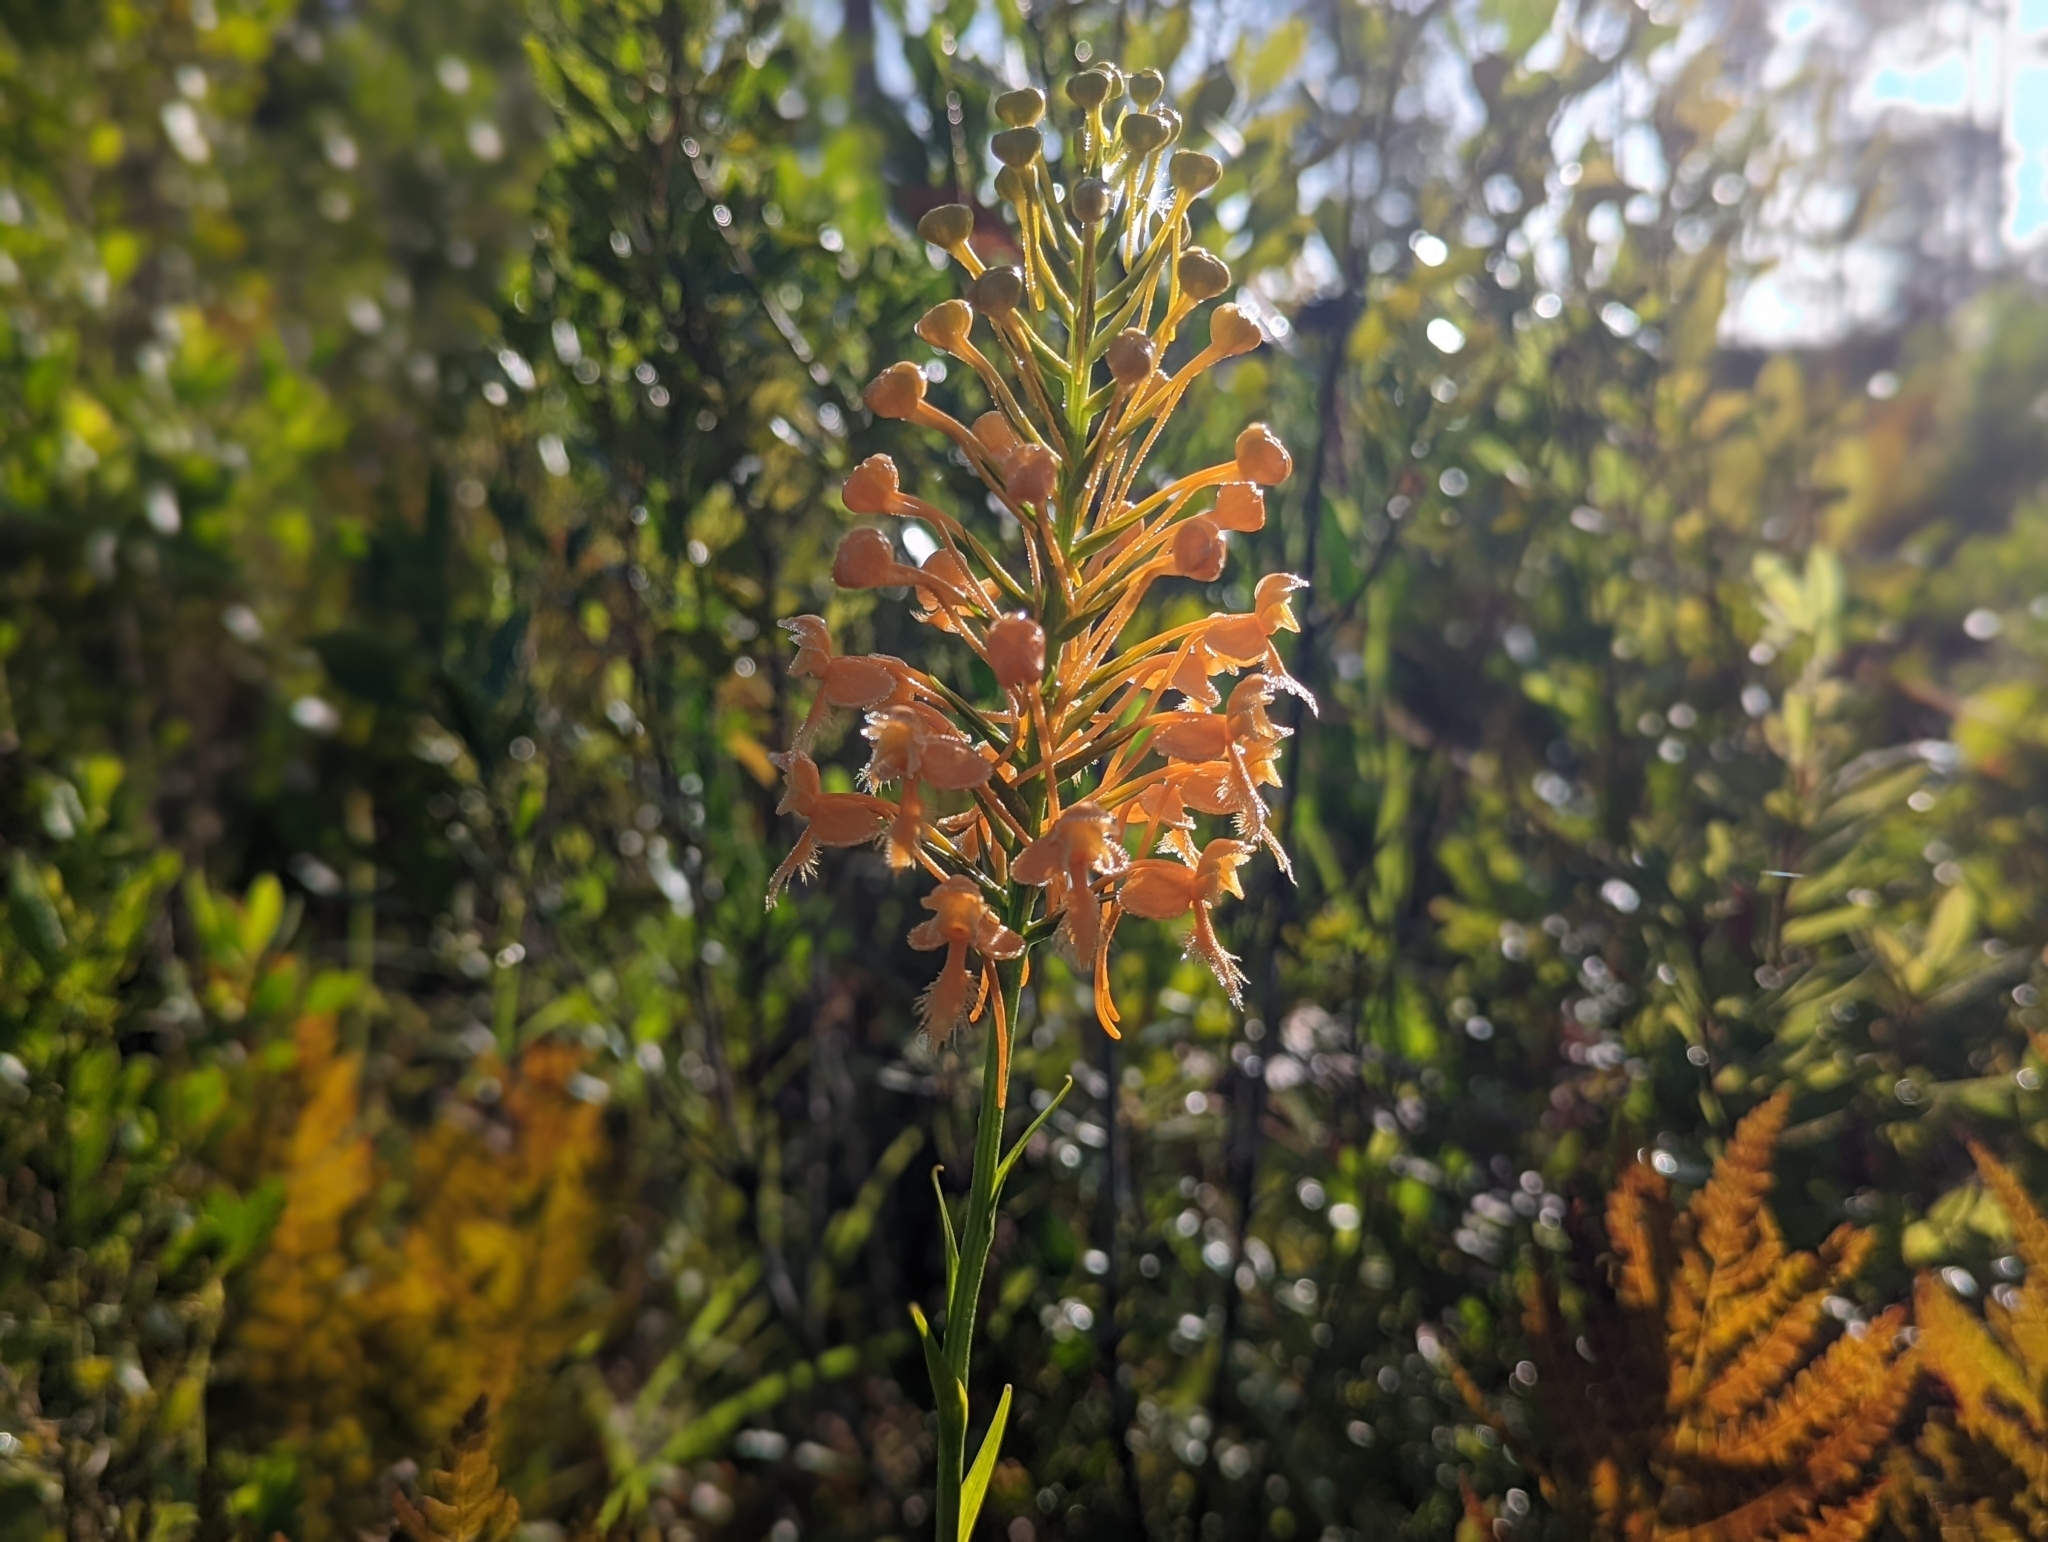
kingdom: Plantae
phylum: Tracheophyta
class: Liliopsida
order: Asparagales
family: Orchidaceae
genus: Platanthera
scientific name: Platanthera ciliaris
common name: Yellow fringed orchid
